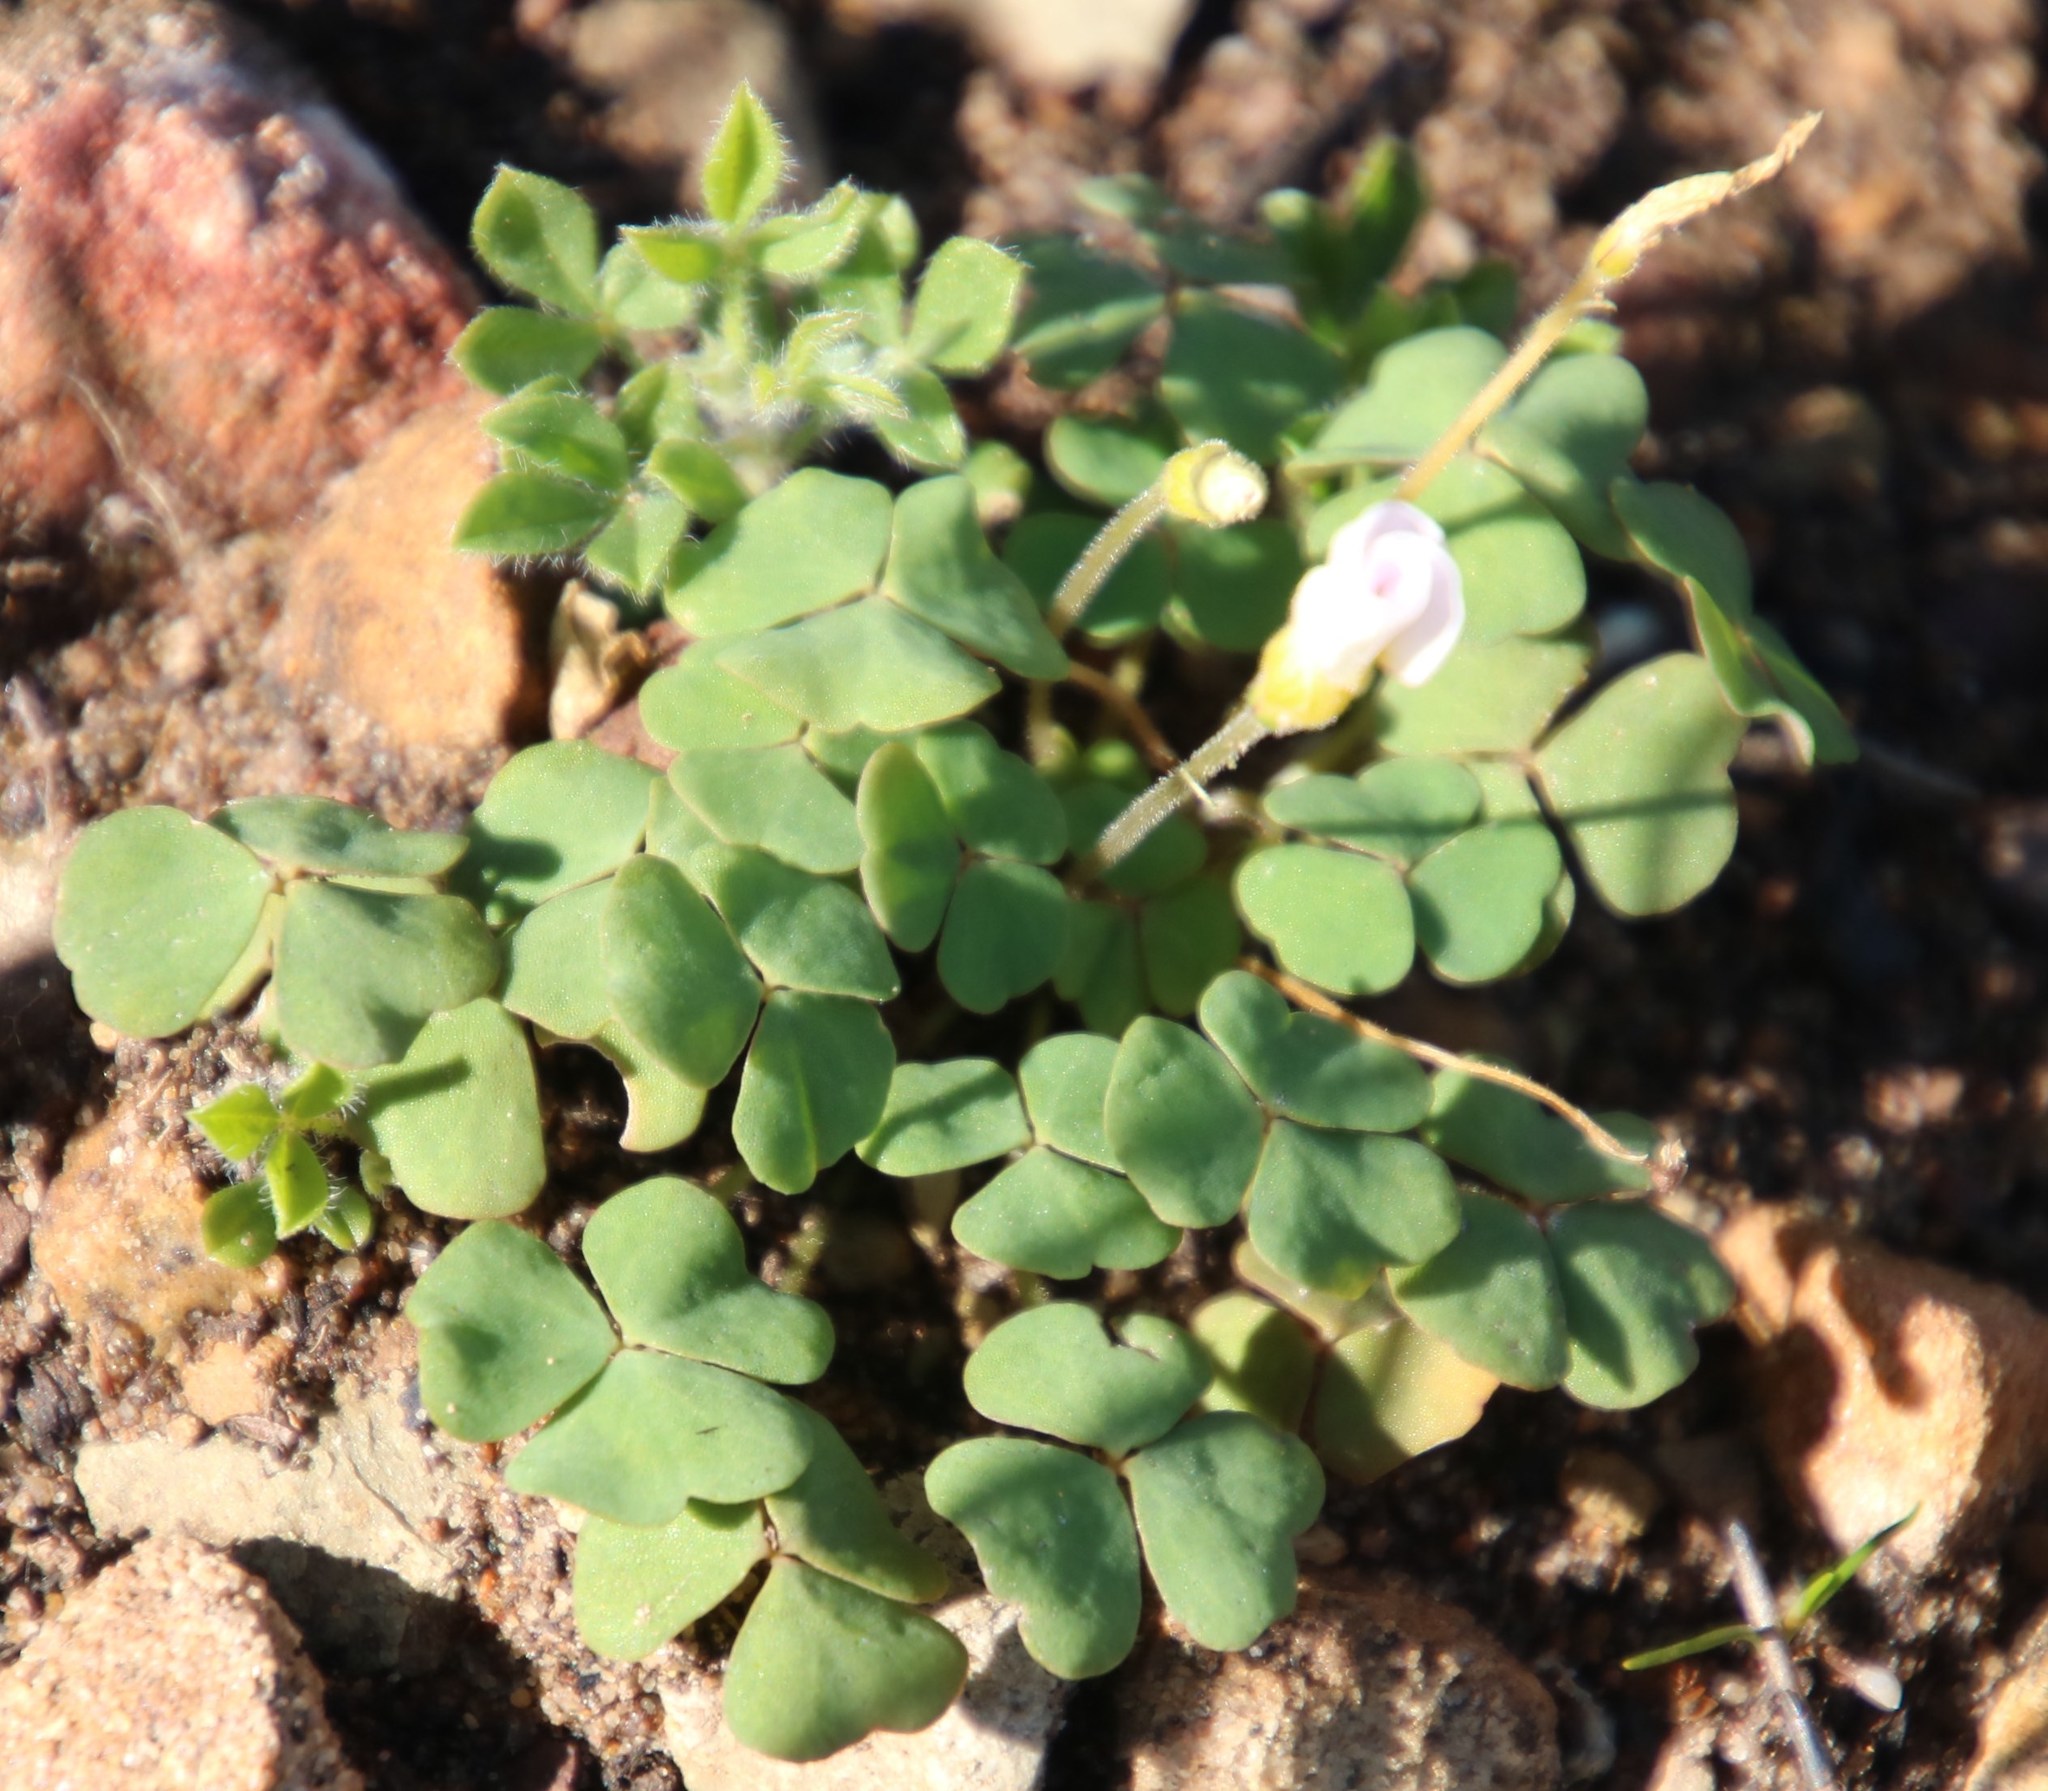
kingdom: Plantae
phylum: Tracheophyta
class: Magnoliopsida
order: Oxalidales
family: Oxalidaceae
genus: Oxalis
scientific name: Oxalis punctata
